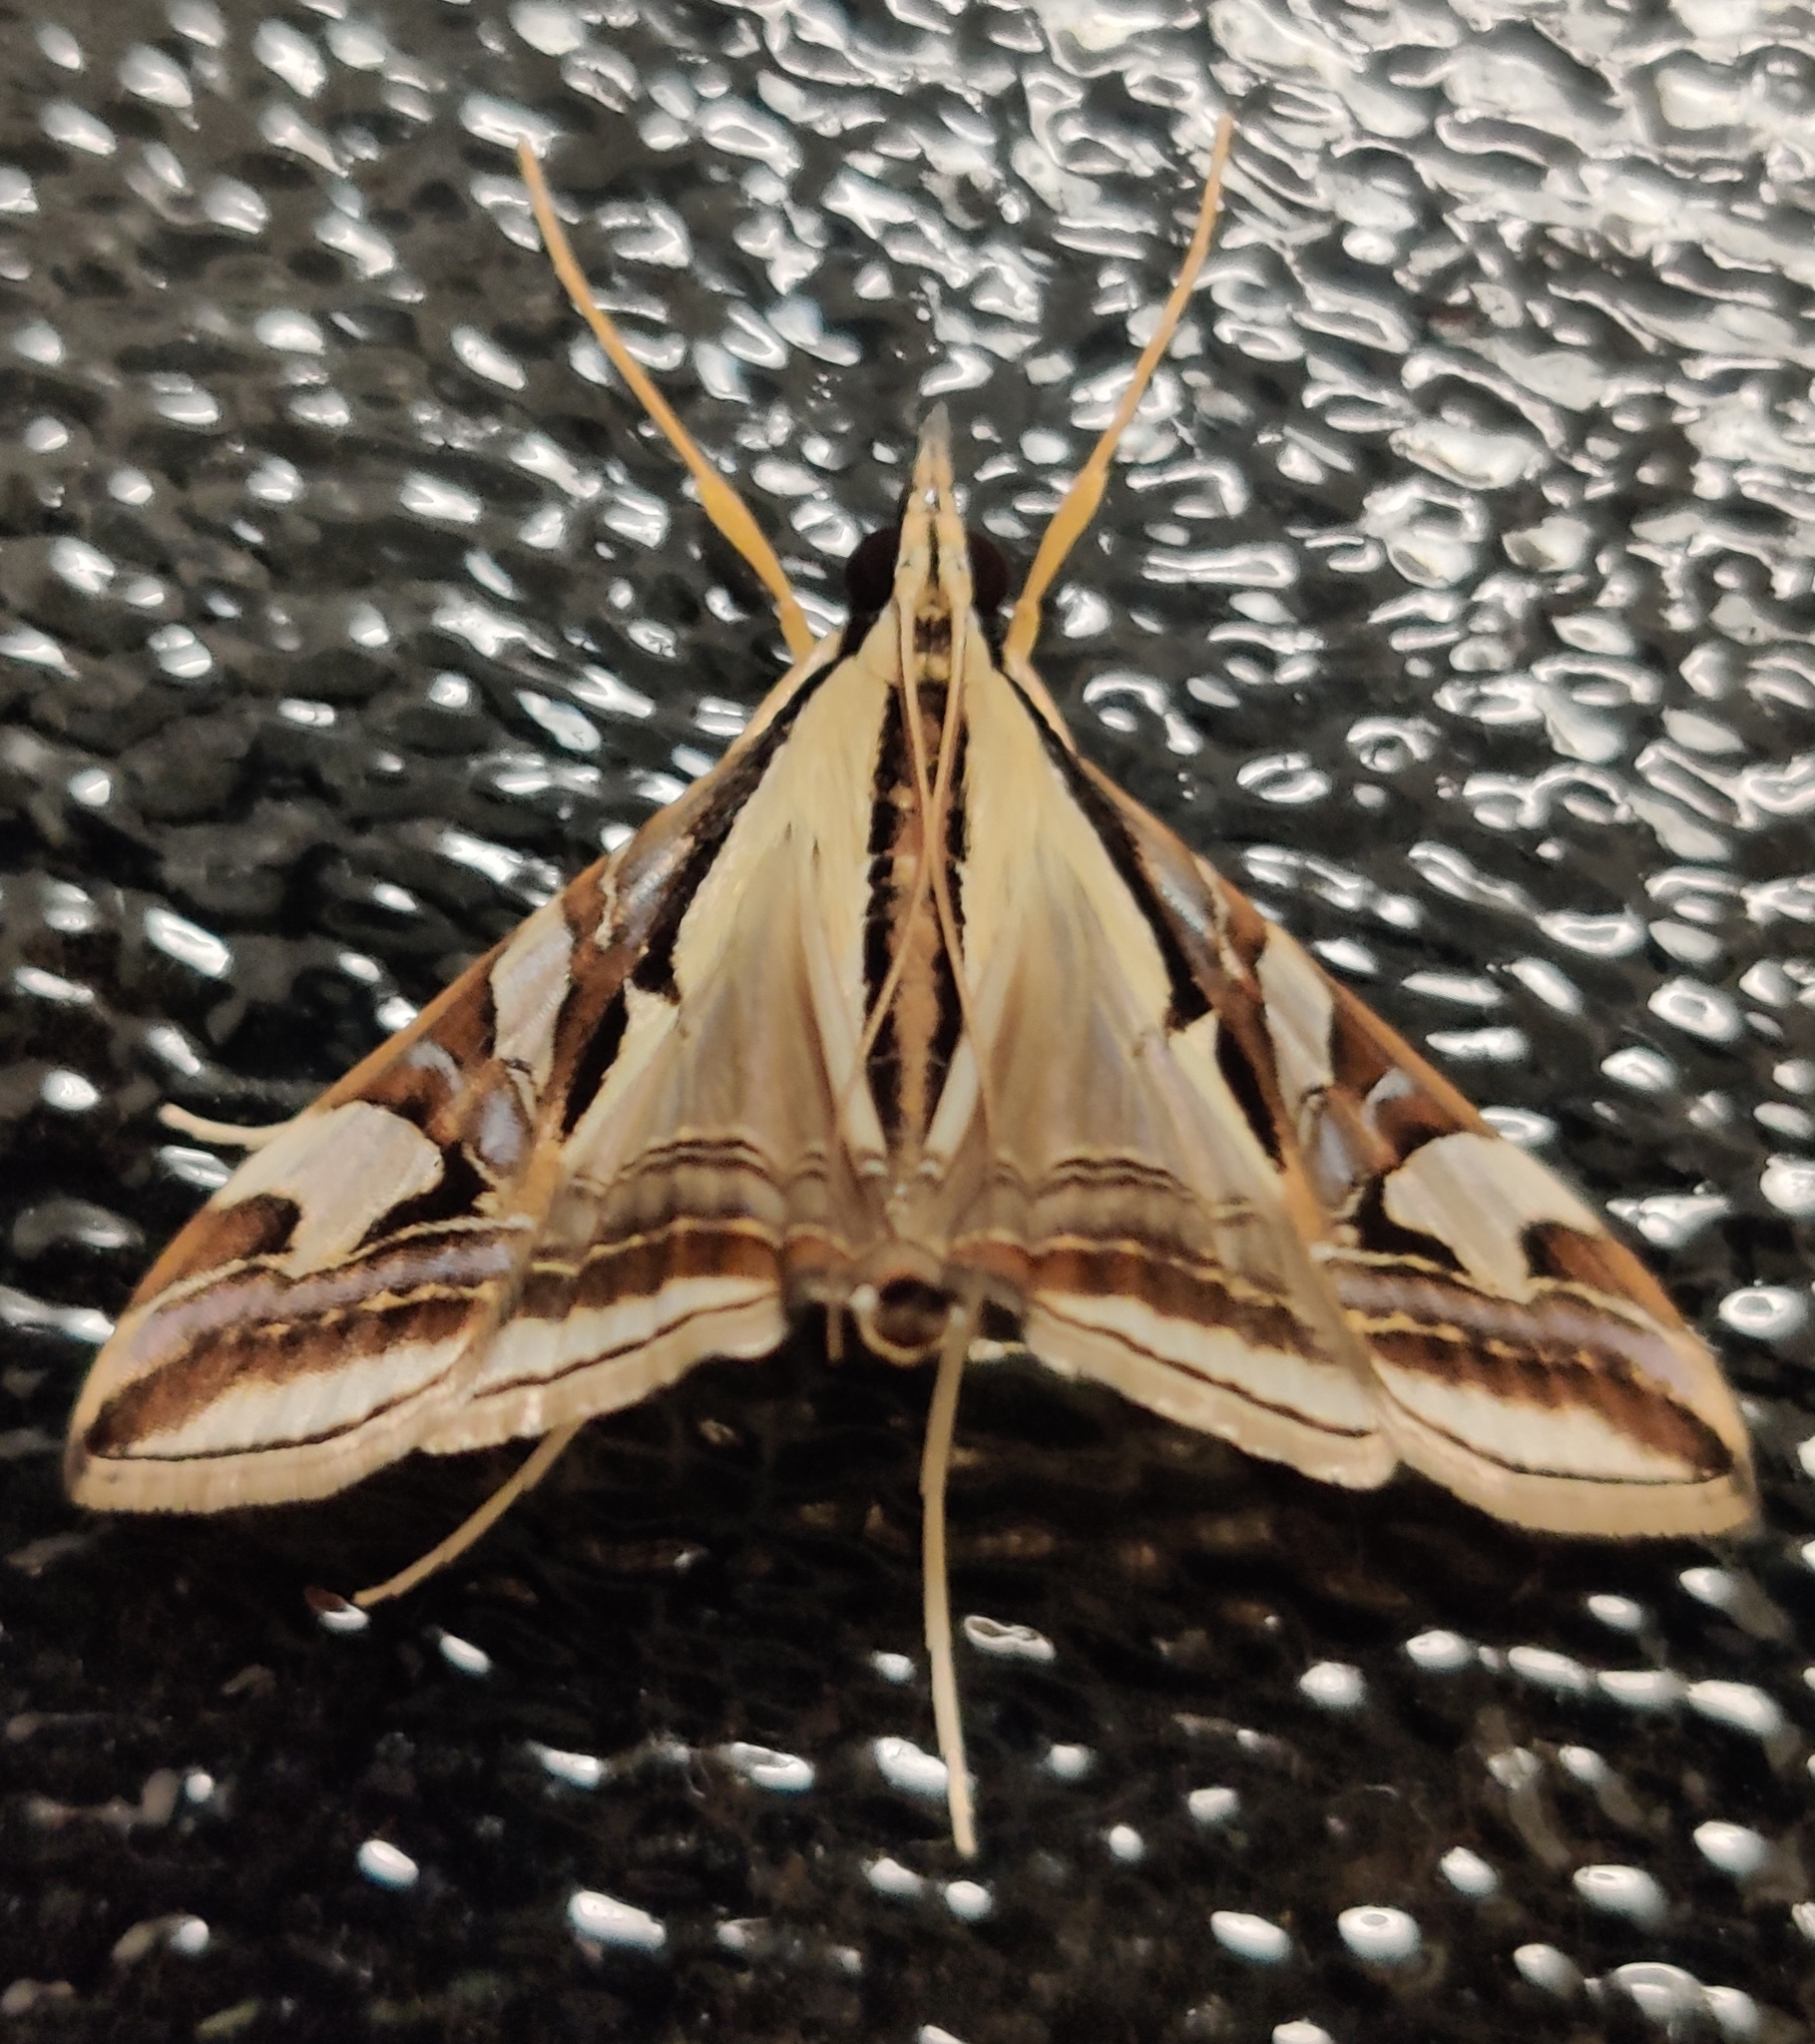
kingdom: Animalia
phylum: Arthropoda
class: Insecta
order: Lepidoptera
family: Crambidae
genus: Agrioglypta
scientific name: Agrioglypta excelsalis
